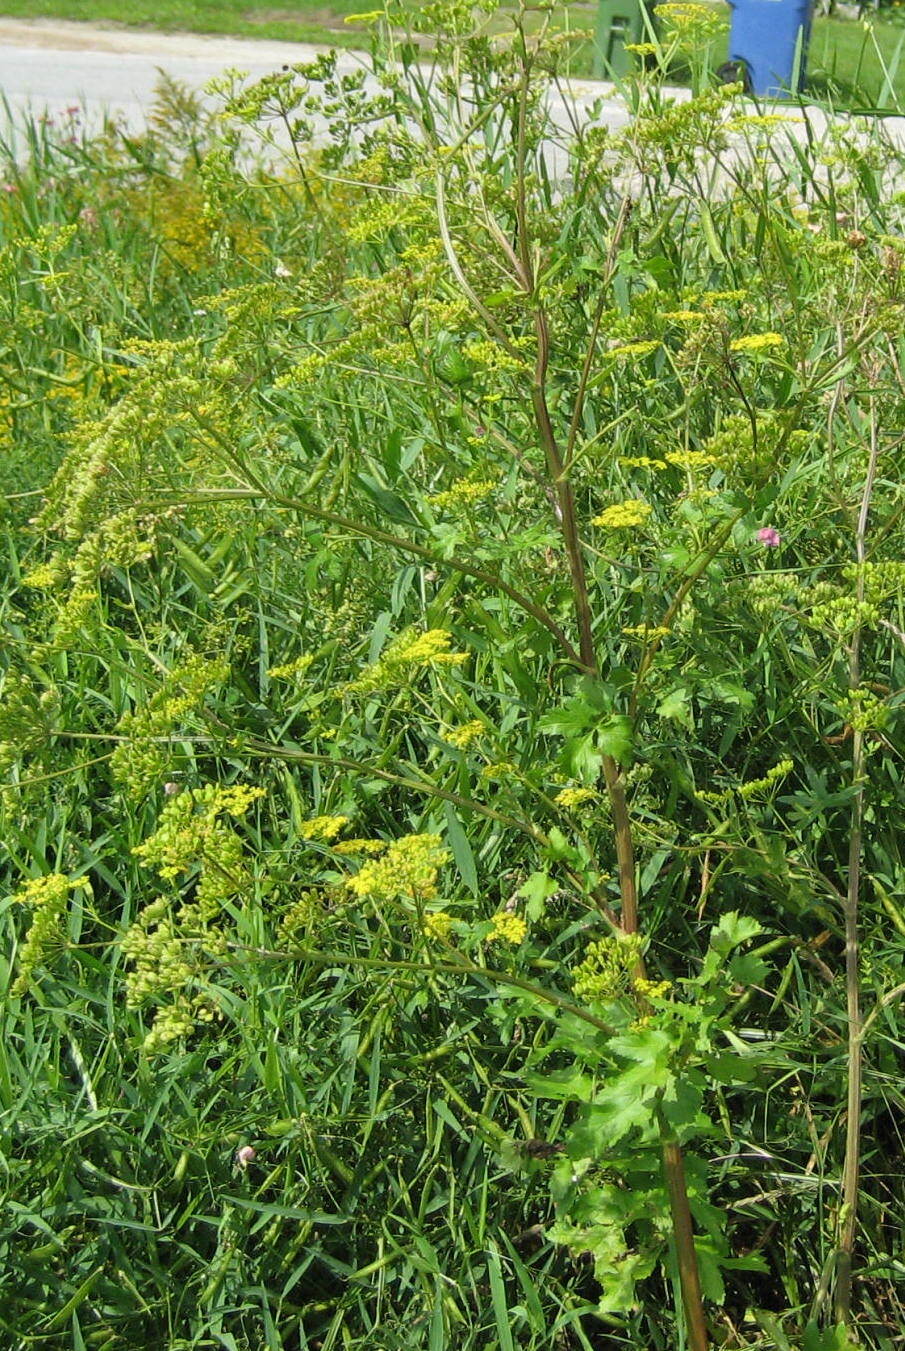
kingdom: Plantae
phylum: Tracheophyta
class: Magnoliopsida
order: Apiales
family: Apiaceae
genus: Pastinaca
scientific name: Pastinaca sativa
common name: Wild parsnip
